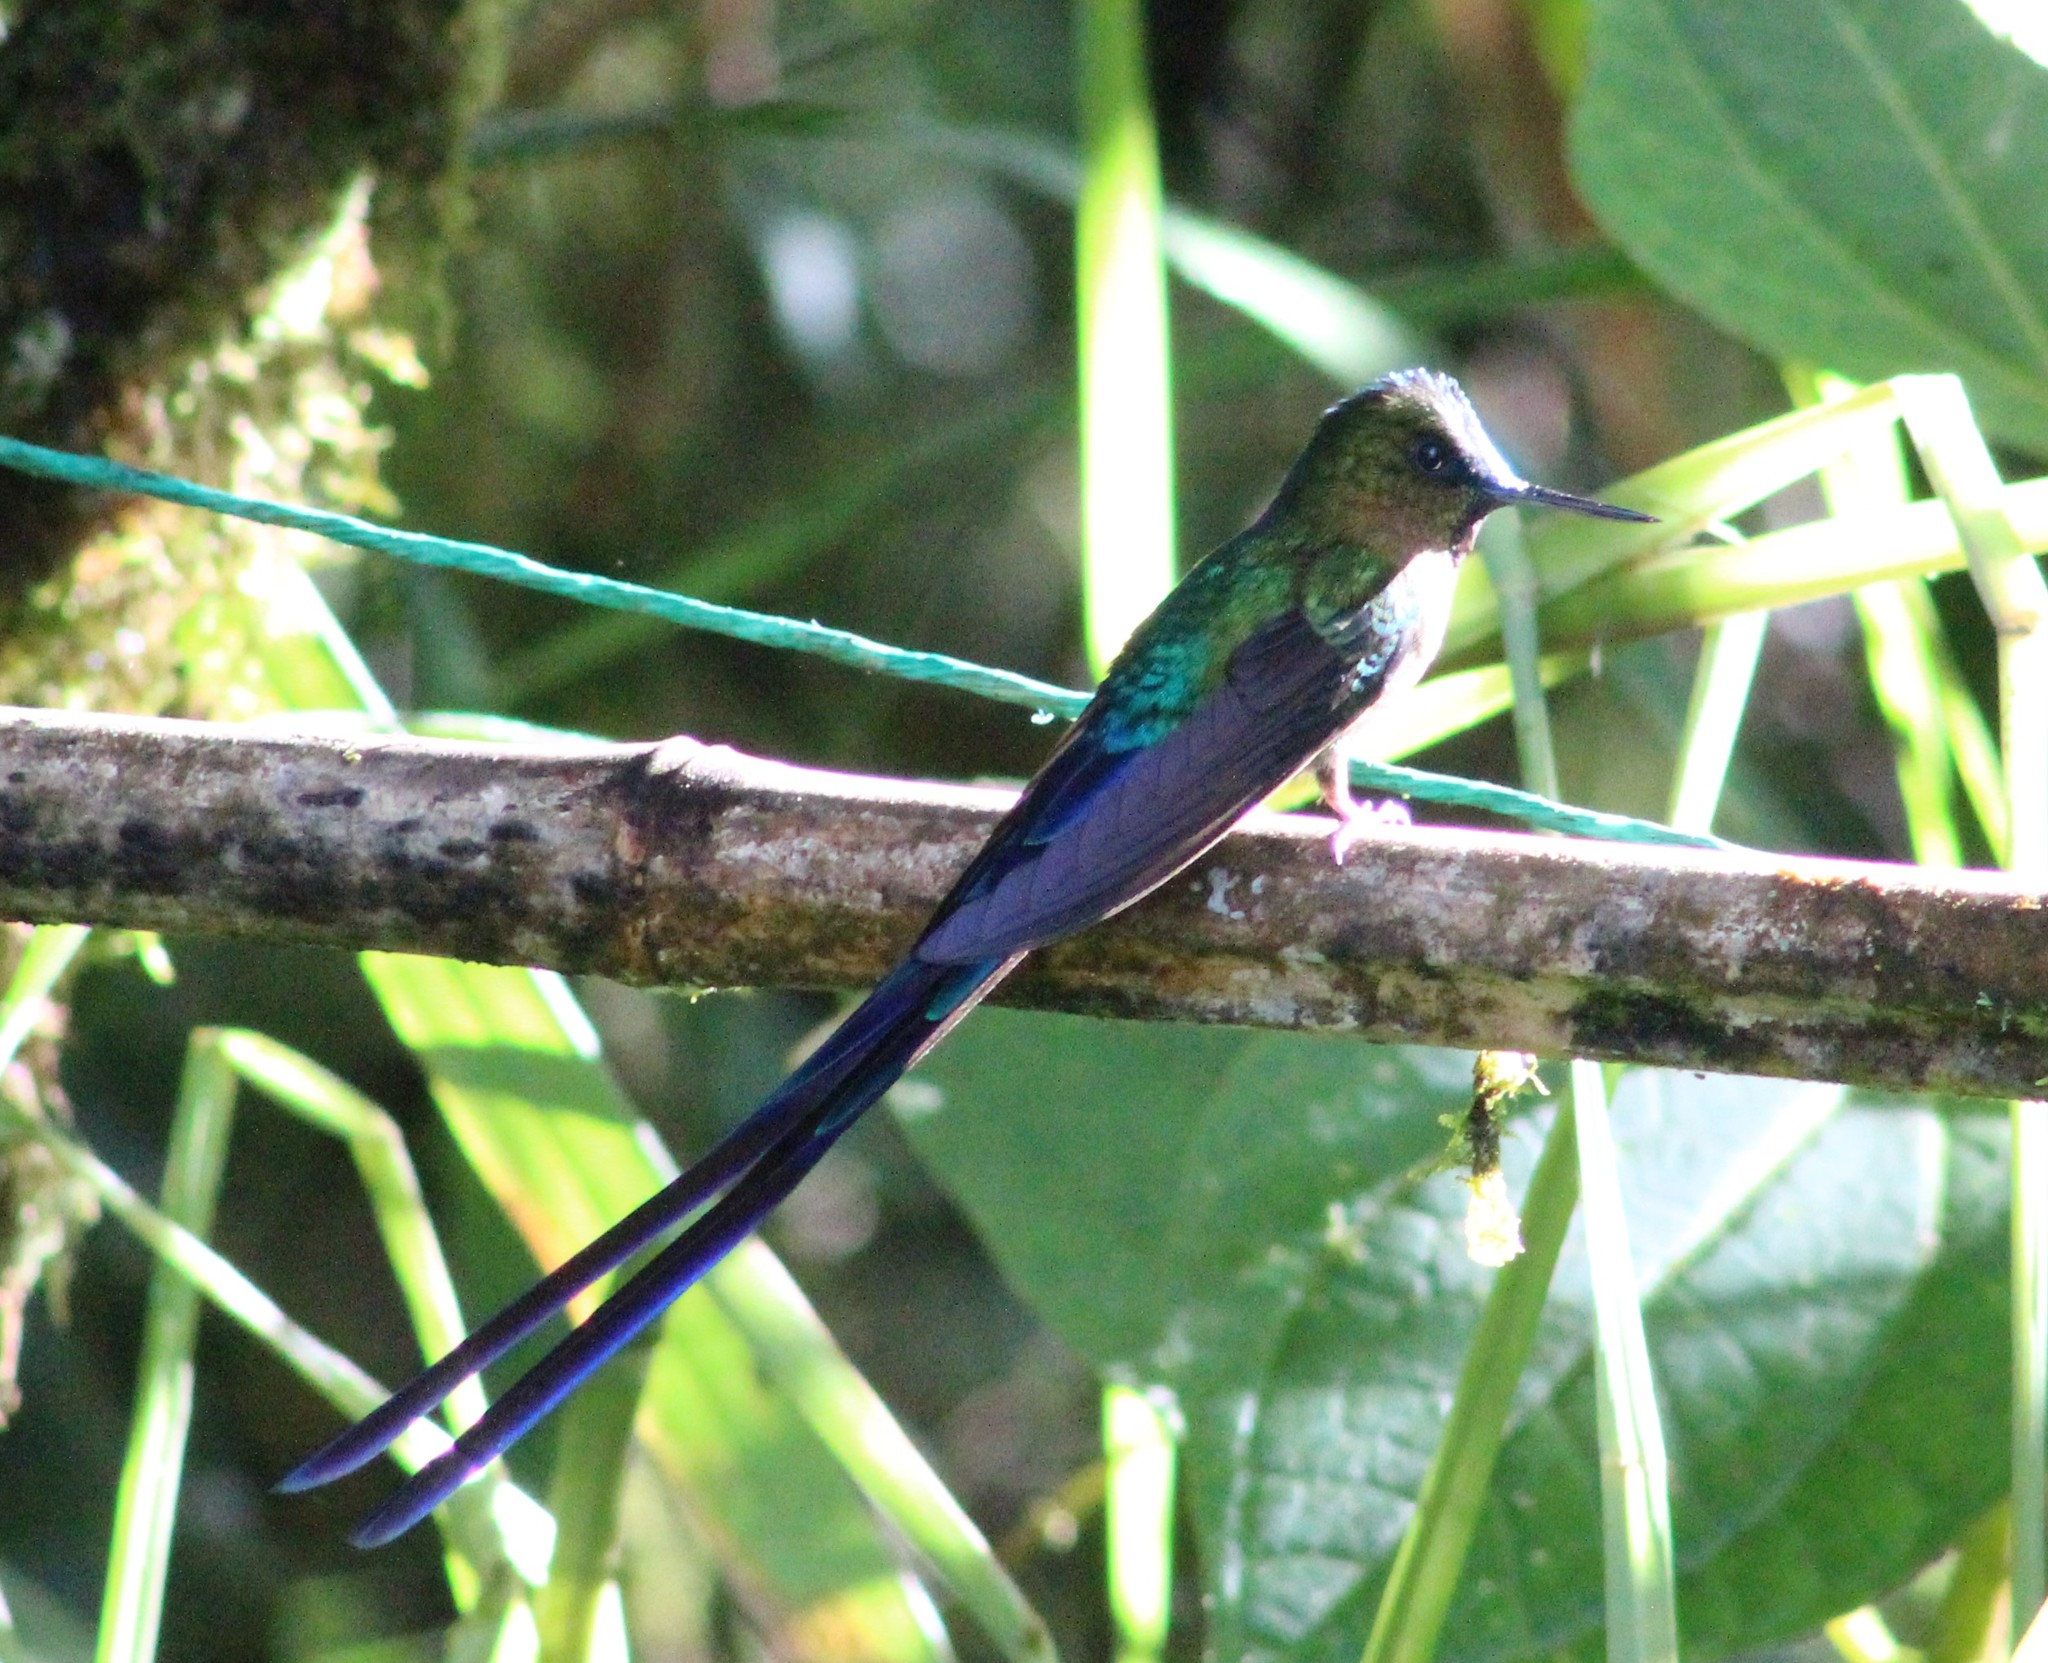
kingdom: Animalia
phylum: Chordata
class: Aves
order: Apodiformes
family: Trochilidae
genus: Aglaiocercus
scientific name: Aglaiocercus coelestis
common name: Violet-tailed sylph
